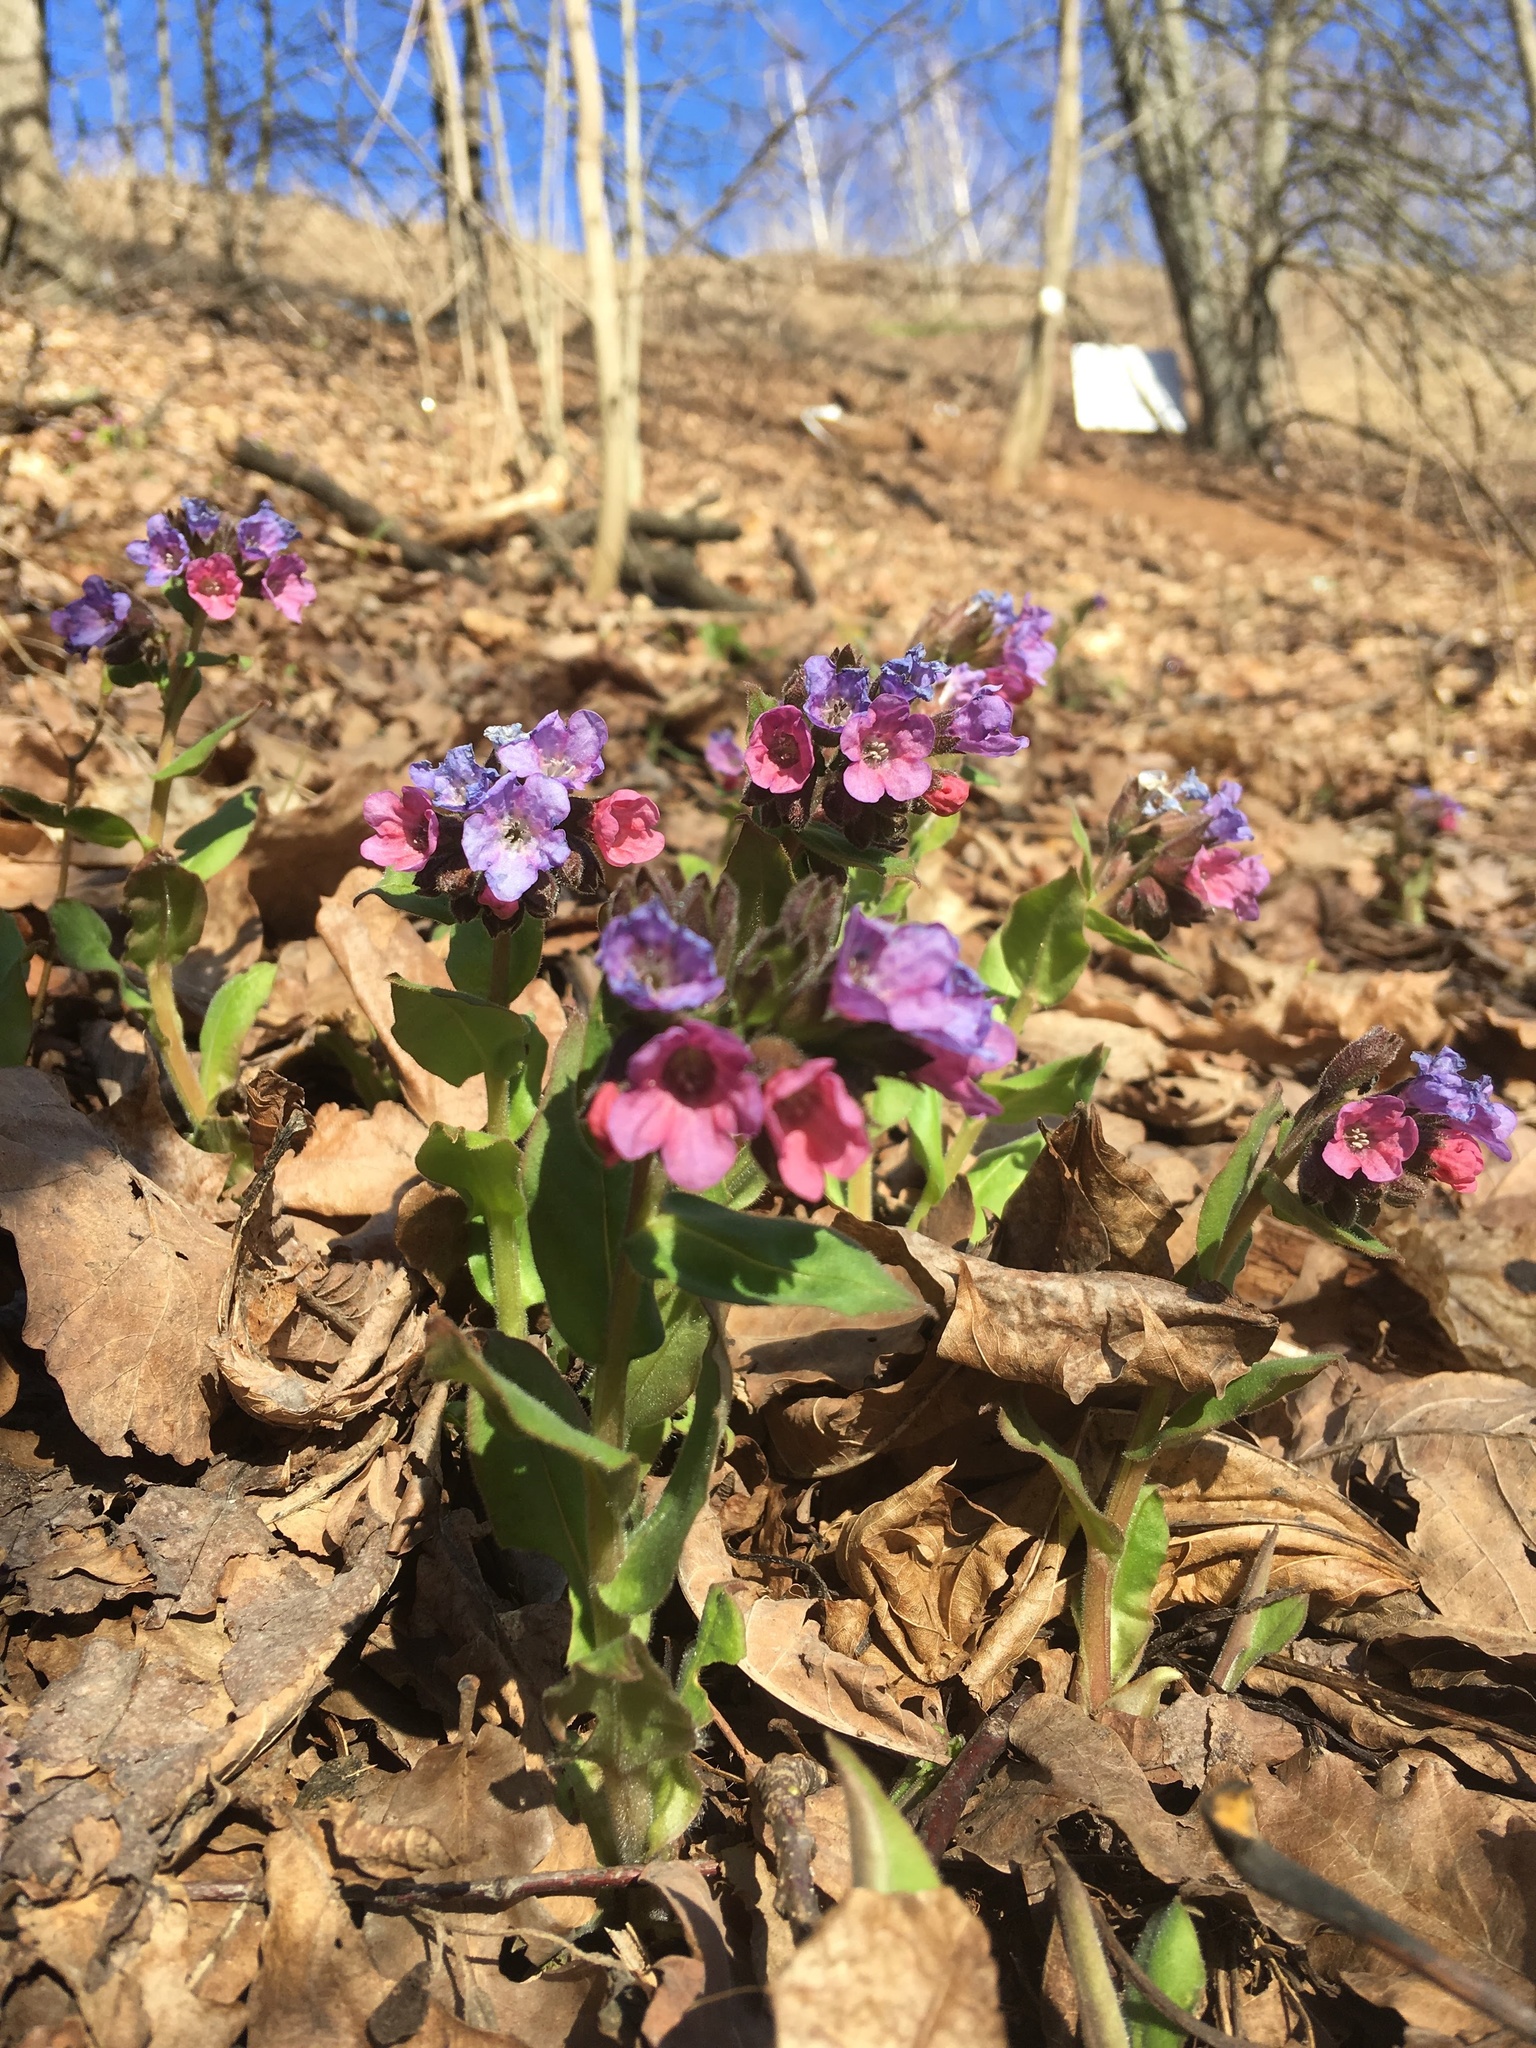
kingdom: Plantae
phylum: Tracheophyta
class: Magnoliopsida
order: Boraginales
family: Boraginaceae
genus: Pulmonaria
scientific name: Pulmonaria obscura
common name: Suffolk lungwort
